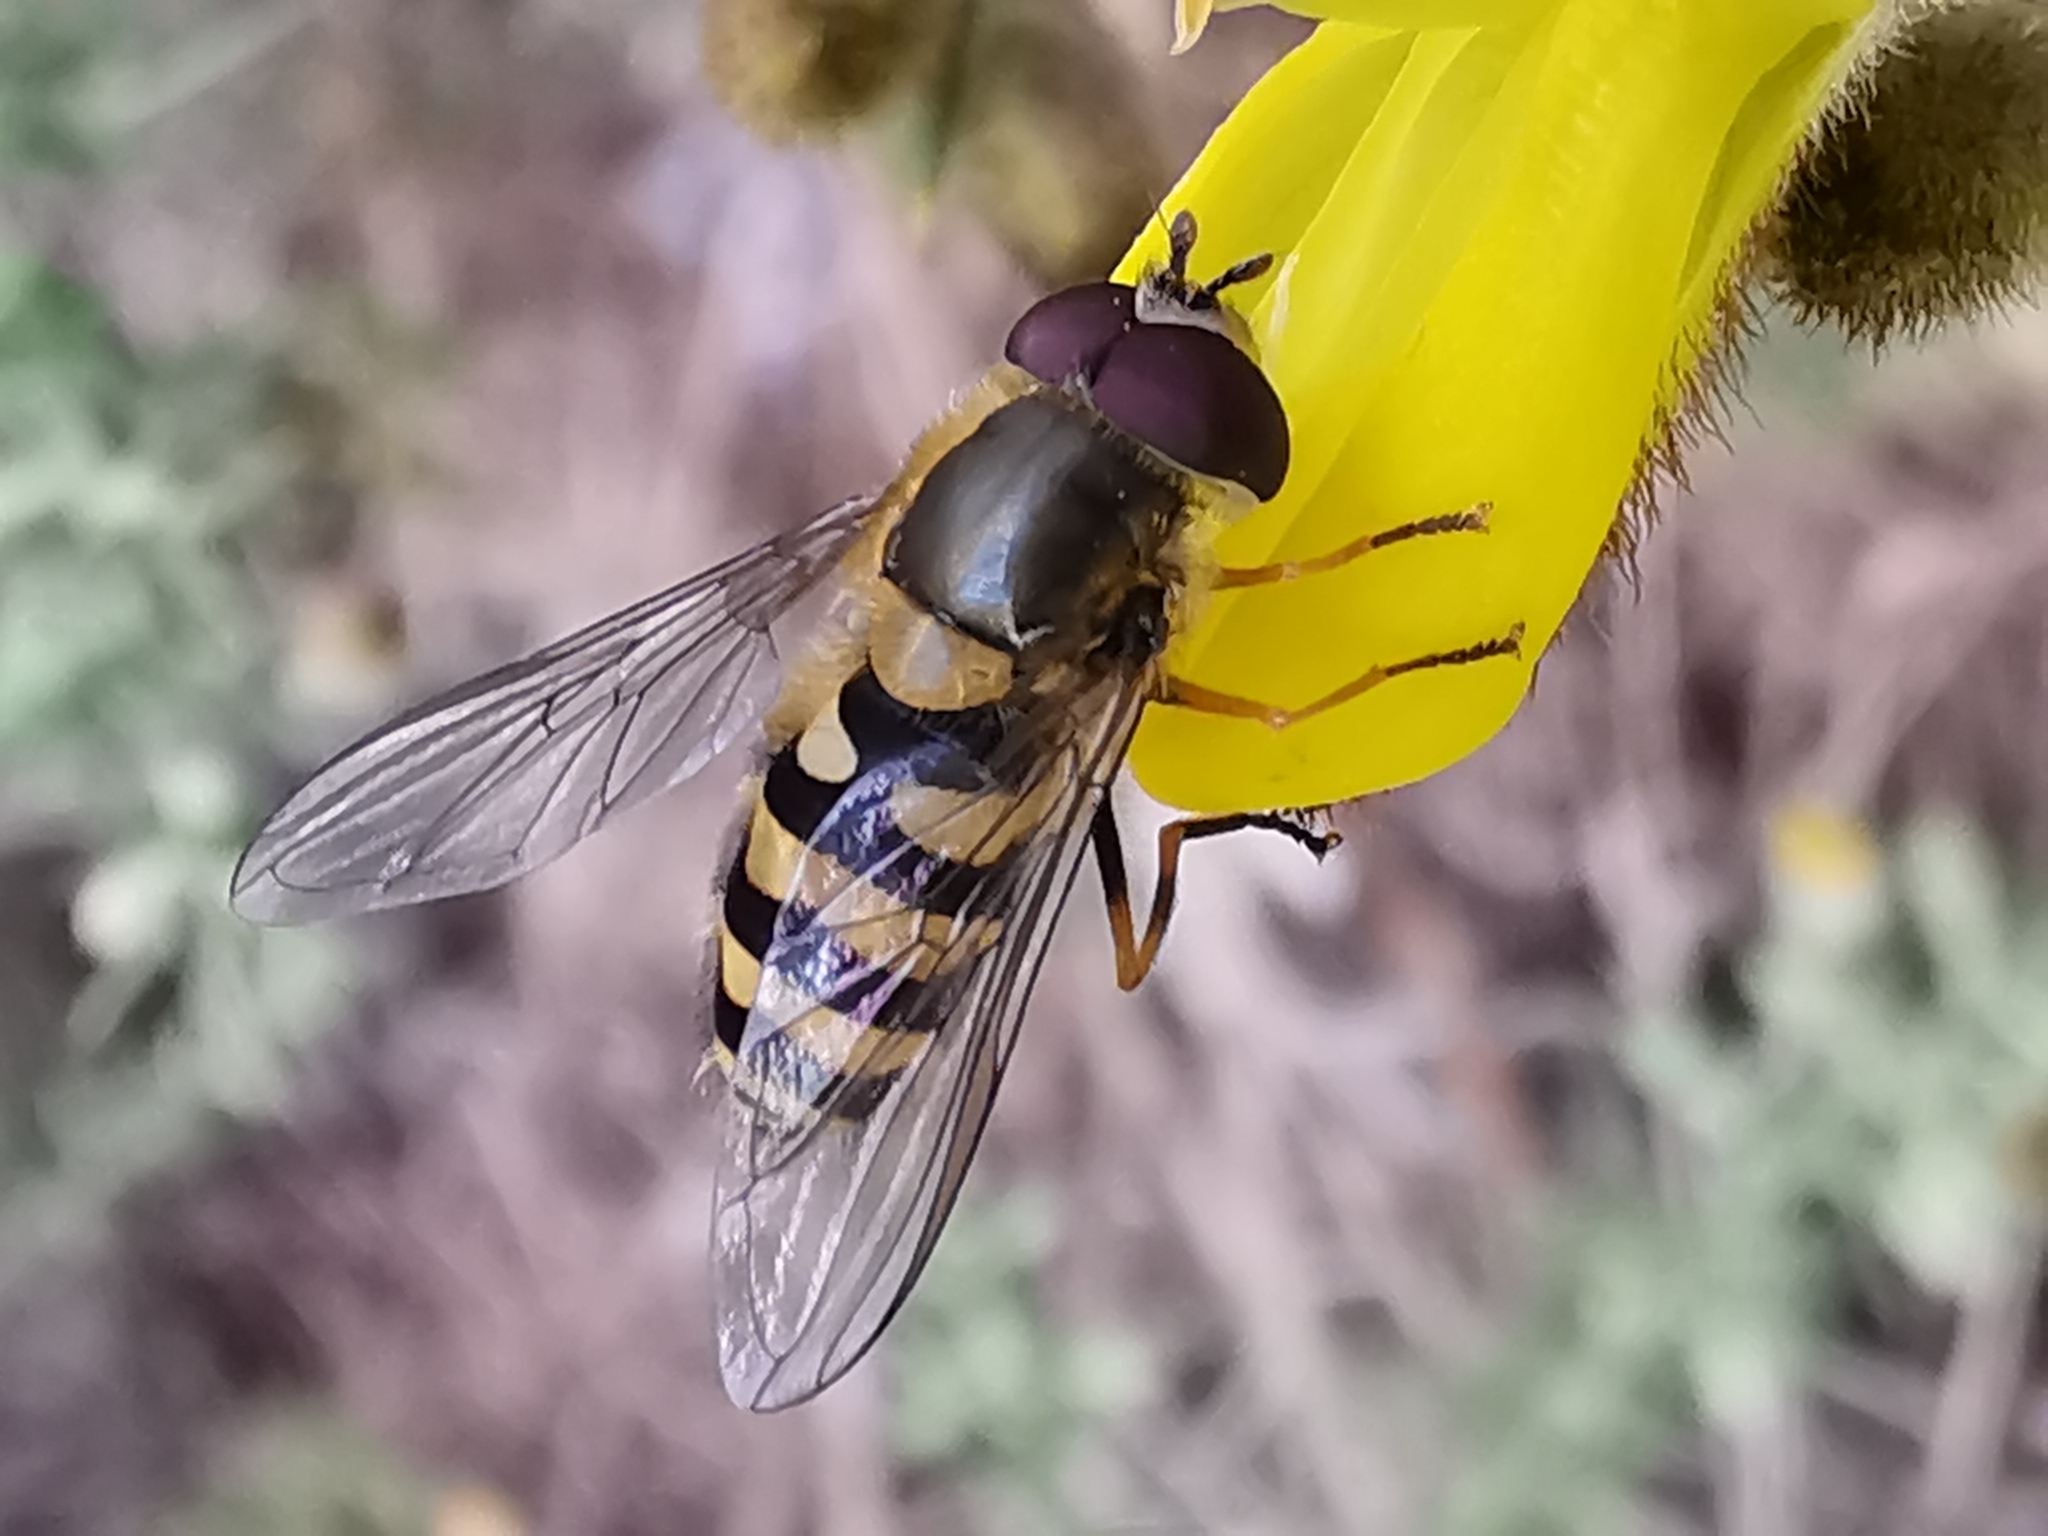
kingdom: Animalia
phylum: Arthropoda
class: Insecta
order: Diptera
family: Syrphidae
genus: Syrphus
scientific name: Syrphus
